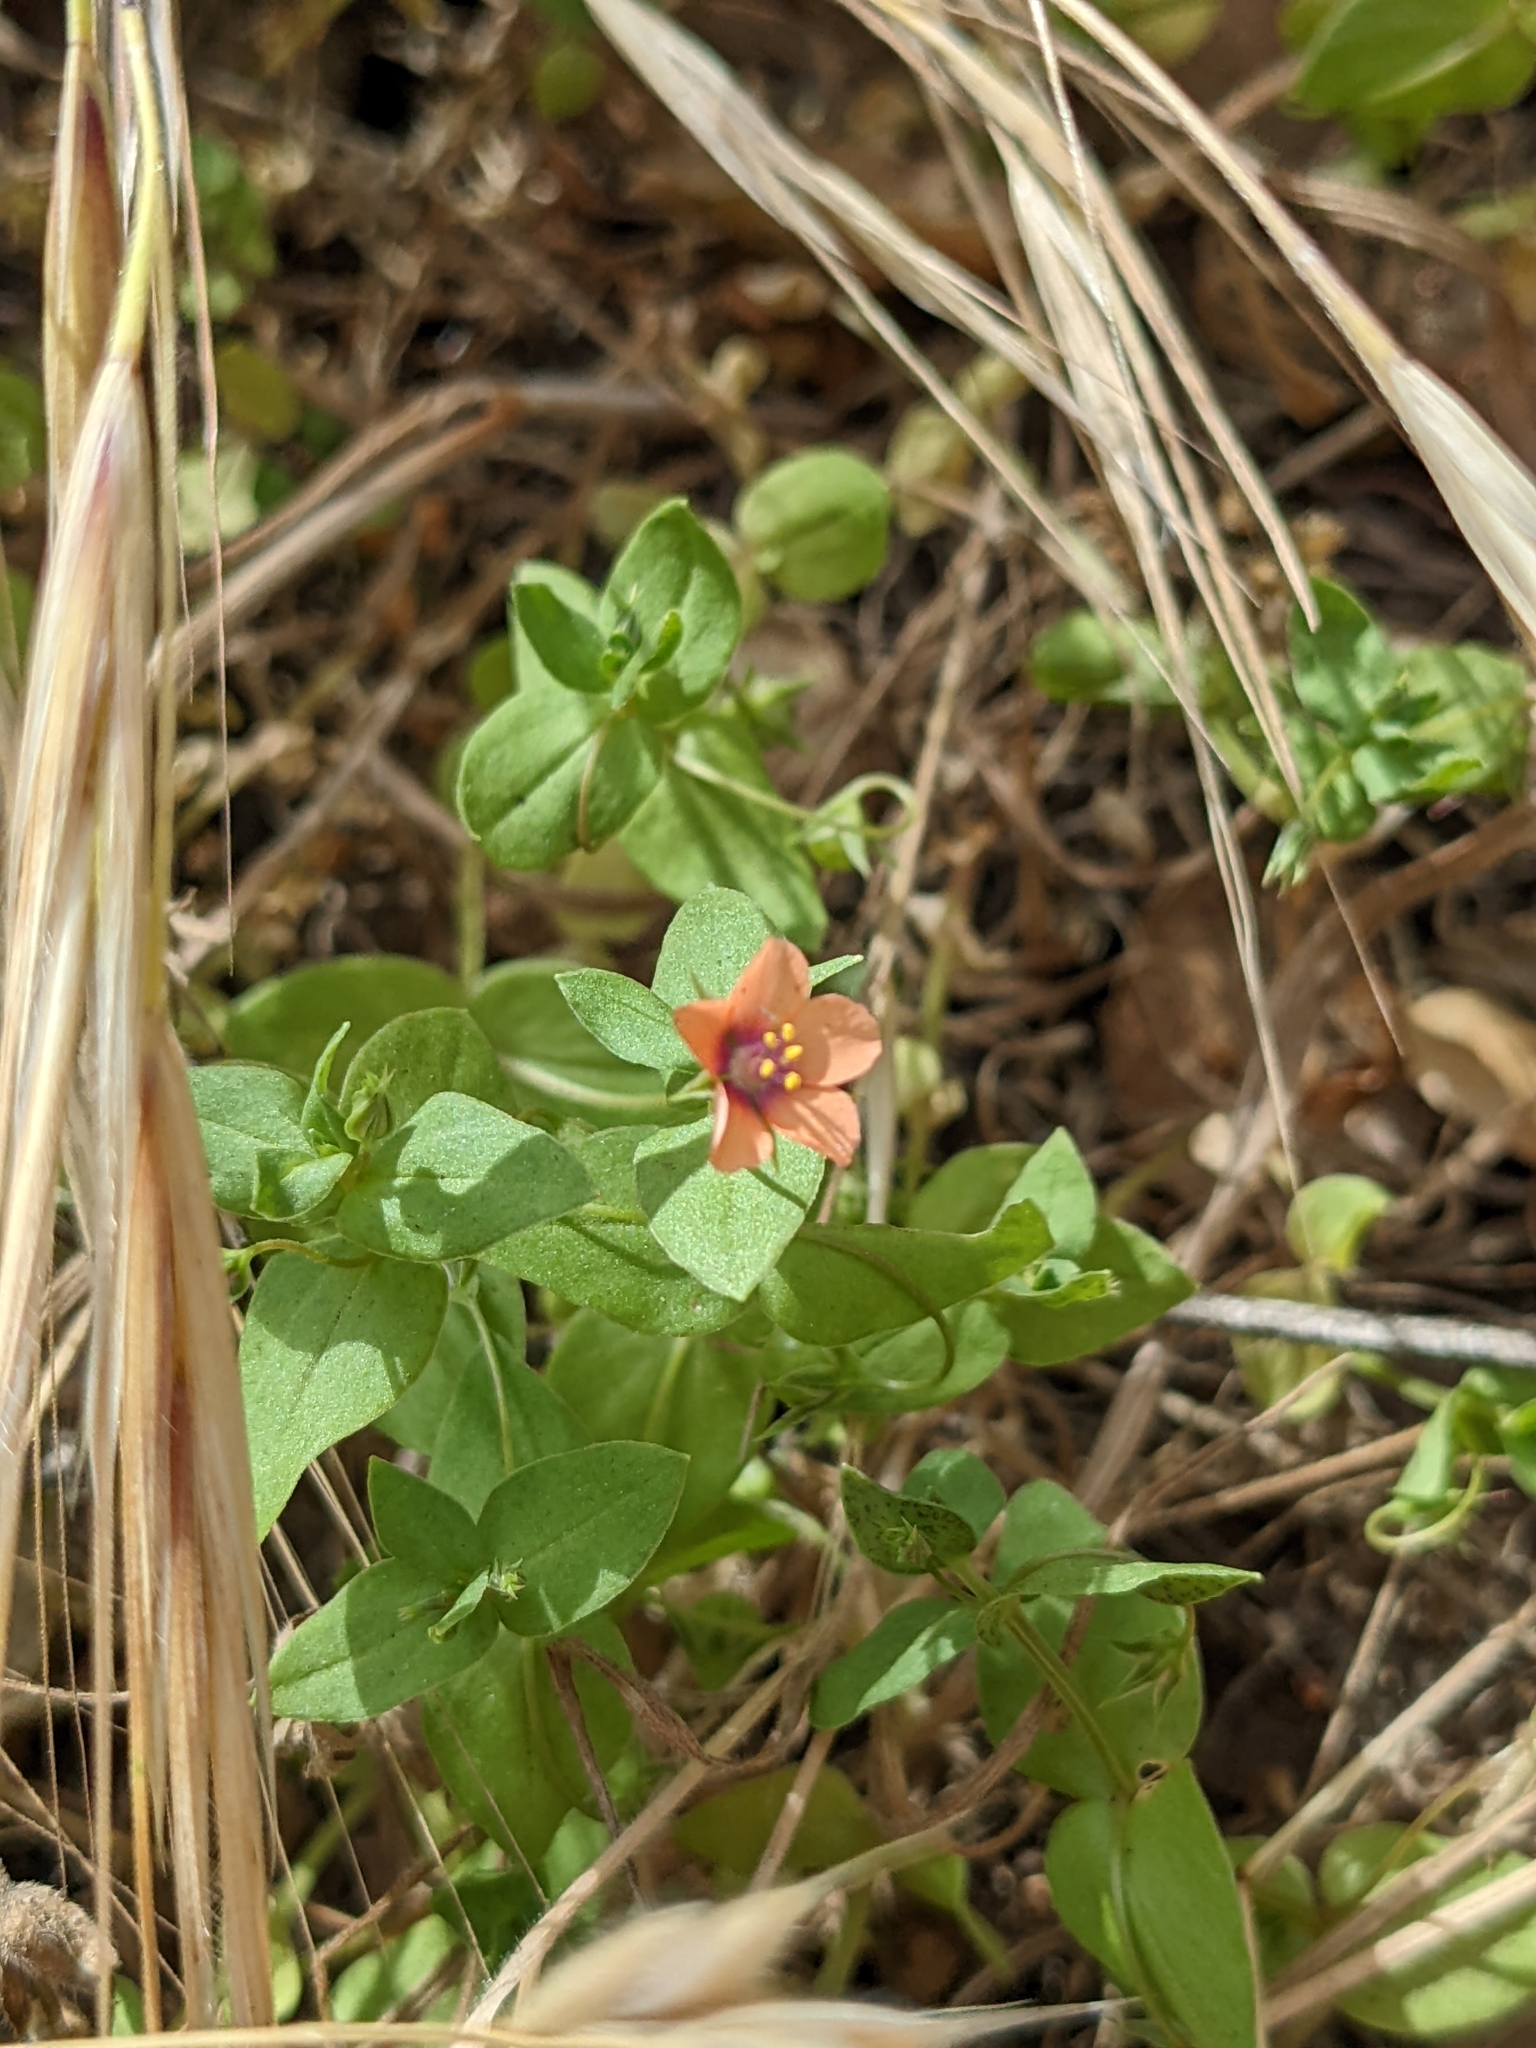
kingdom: Plantae
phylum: Tracheophyta
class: Magnoliopsida
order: Ericales
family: Primulaceae
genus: Lysimachia
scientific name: Lysimachia arvensis
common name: Scarlet pimpernel
